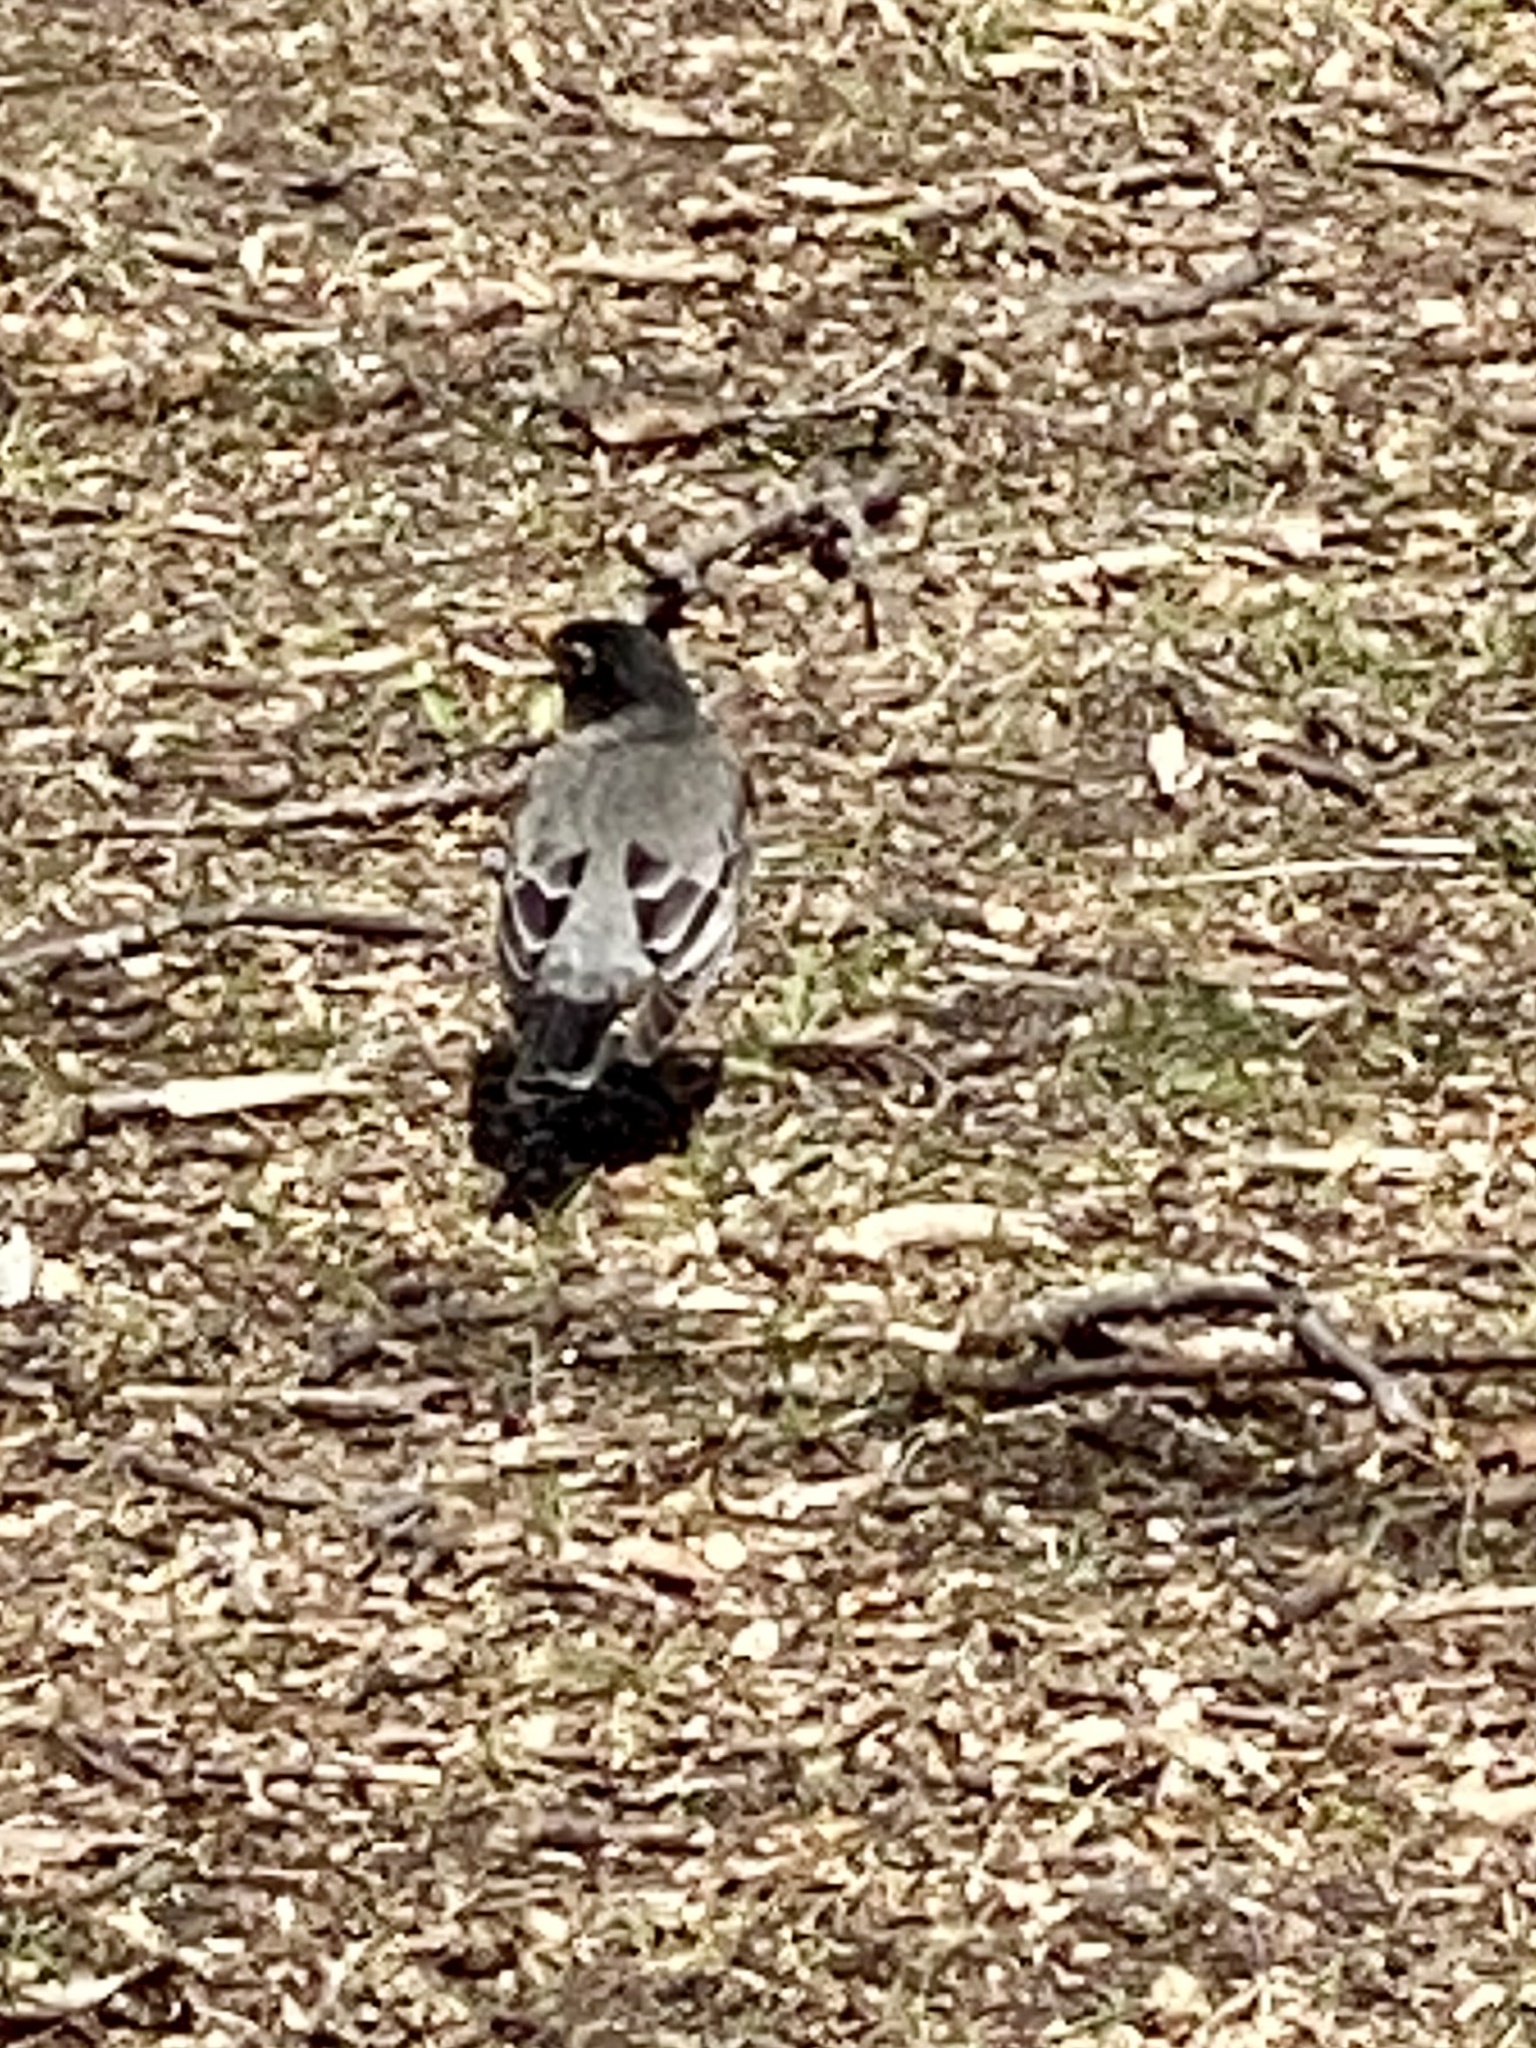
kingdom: Animalia
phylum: Chordata
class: Aves
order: Passeriformes
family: Turdidae
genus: Turdus
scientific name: Turdus migratorius
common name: American robin
